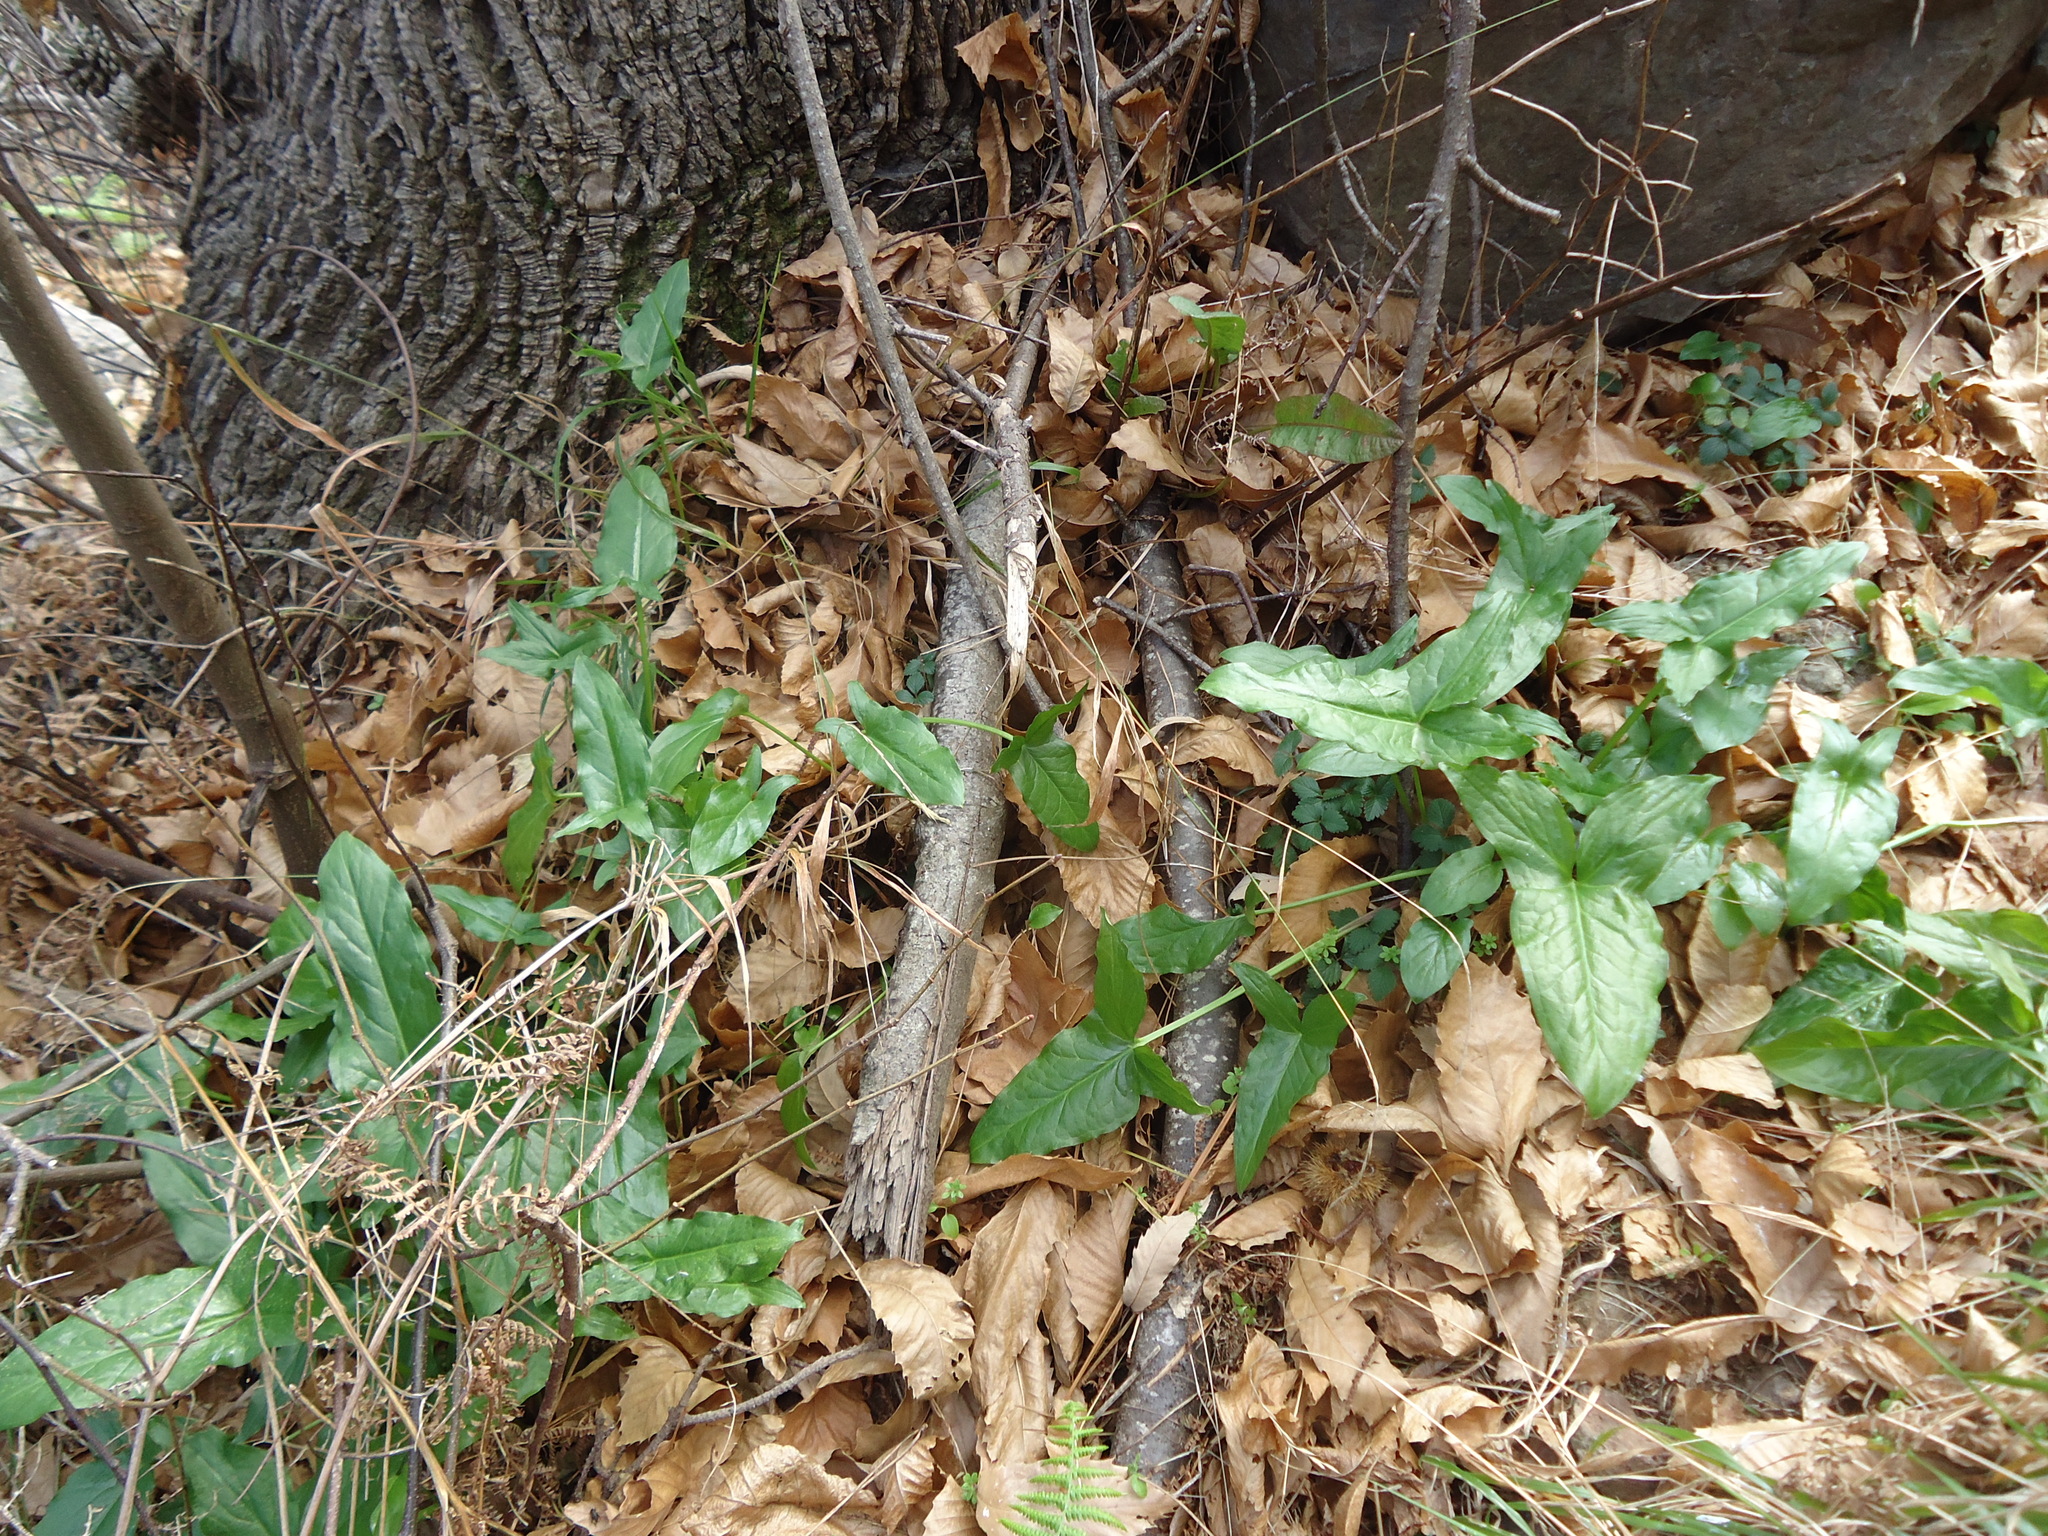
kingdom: Plantae
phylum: Tracheophyta
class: Liliopsida
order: Alismatales
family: Araceae
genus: Arum
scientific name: Arum italicum
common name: Italian lords-and-ladies
